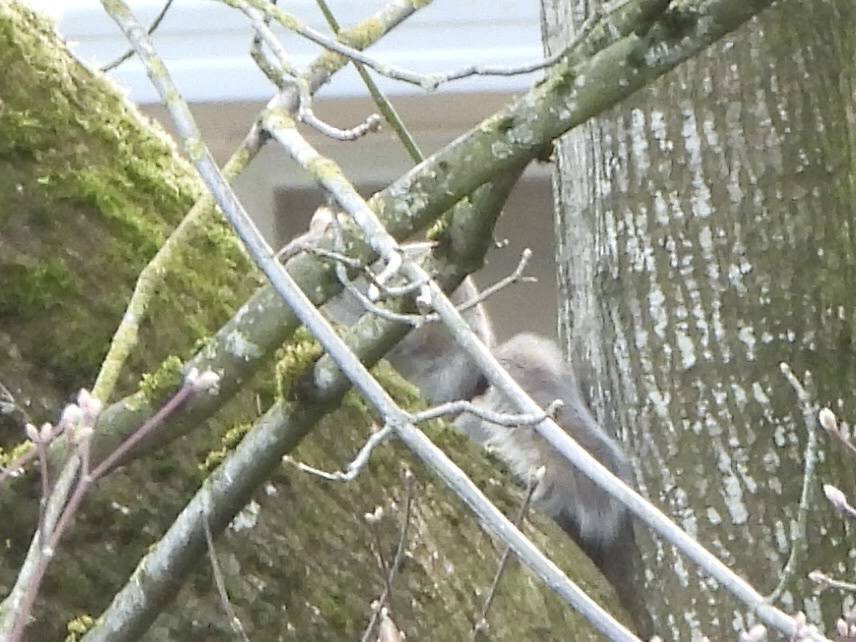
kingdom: Animalia
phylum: Chordata
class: Mammalia
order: Rodentia
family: Sciuridae
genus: Sciurus
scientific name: Sciurus carolinensis
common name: Eastern gray squirrel
